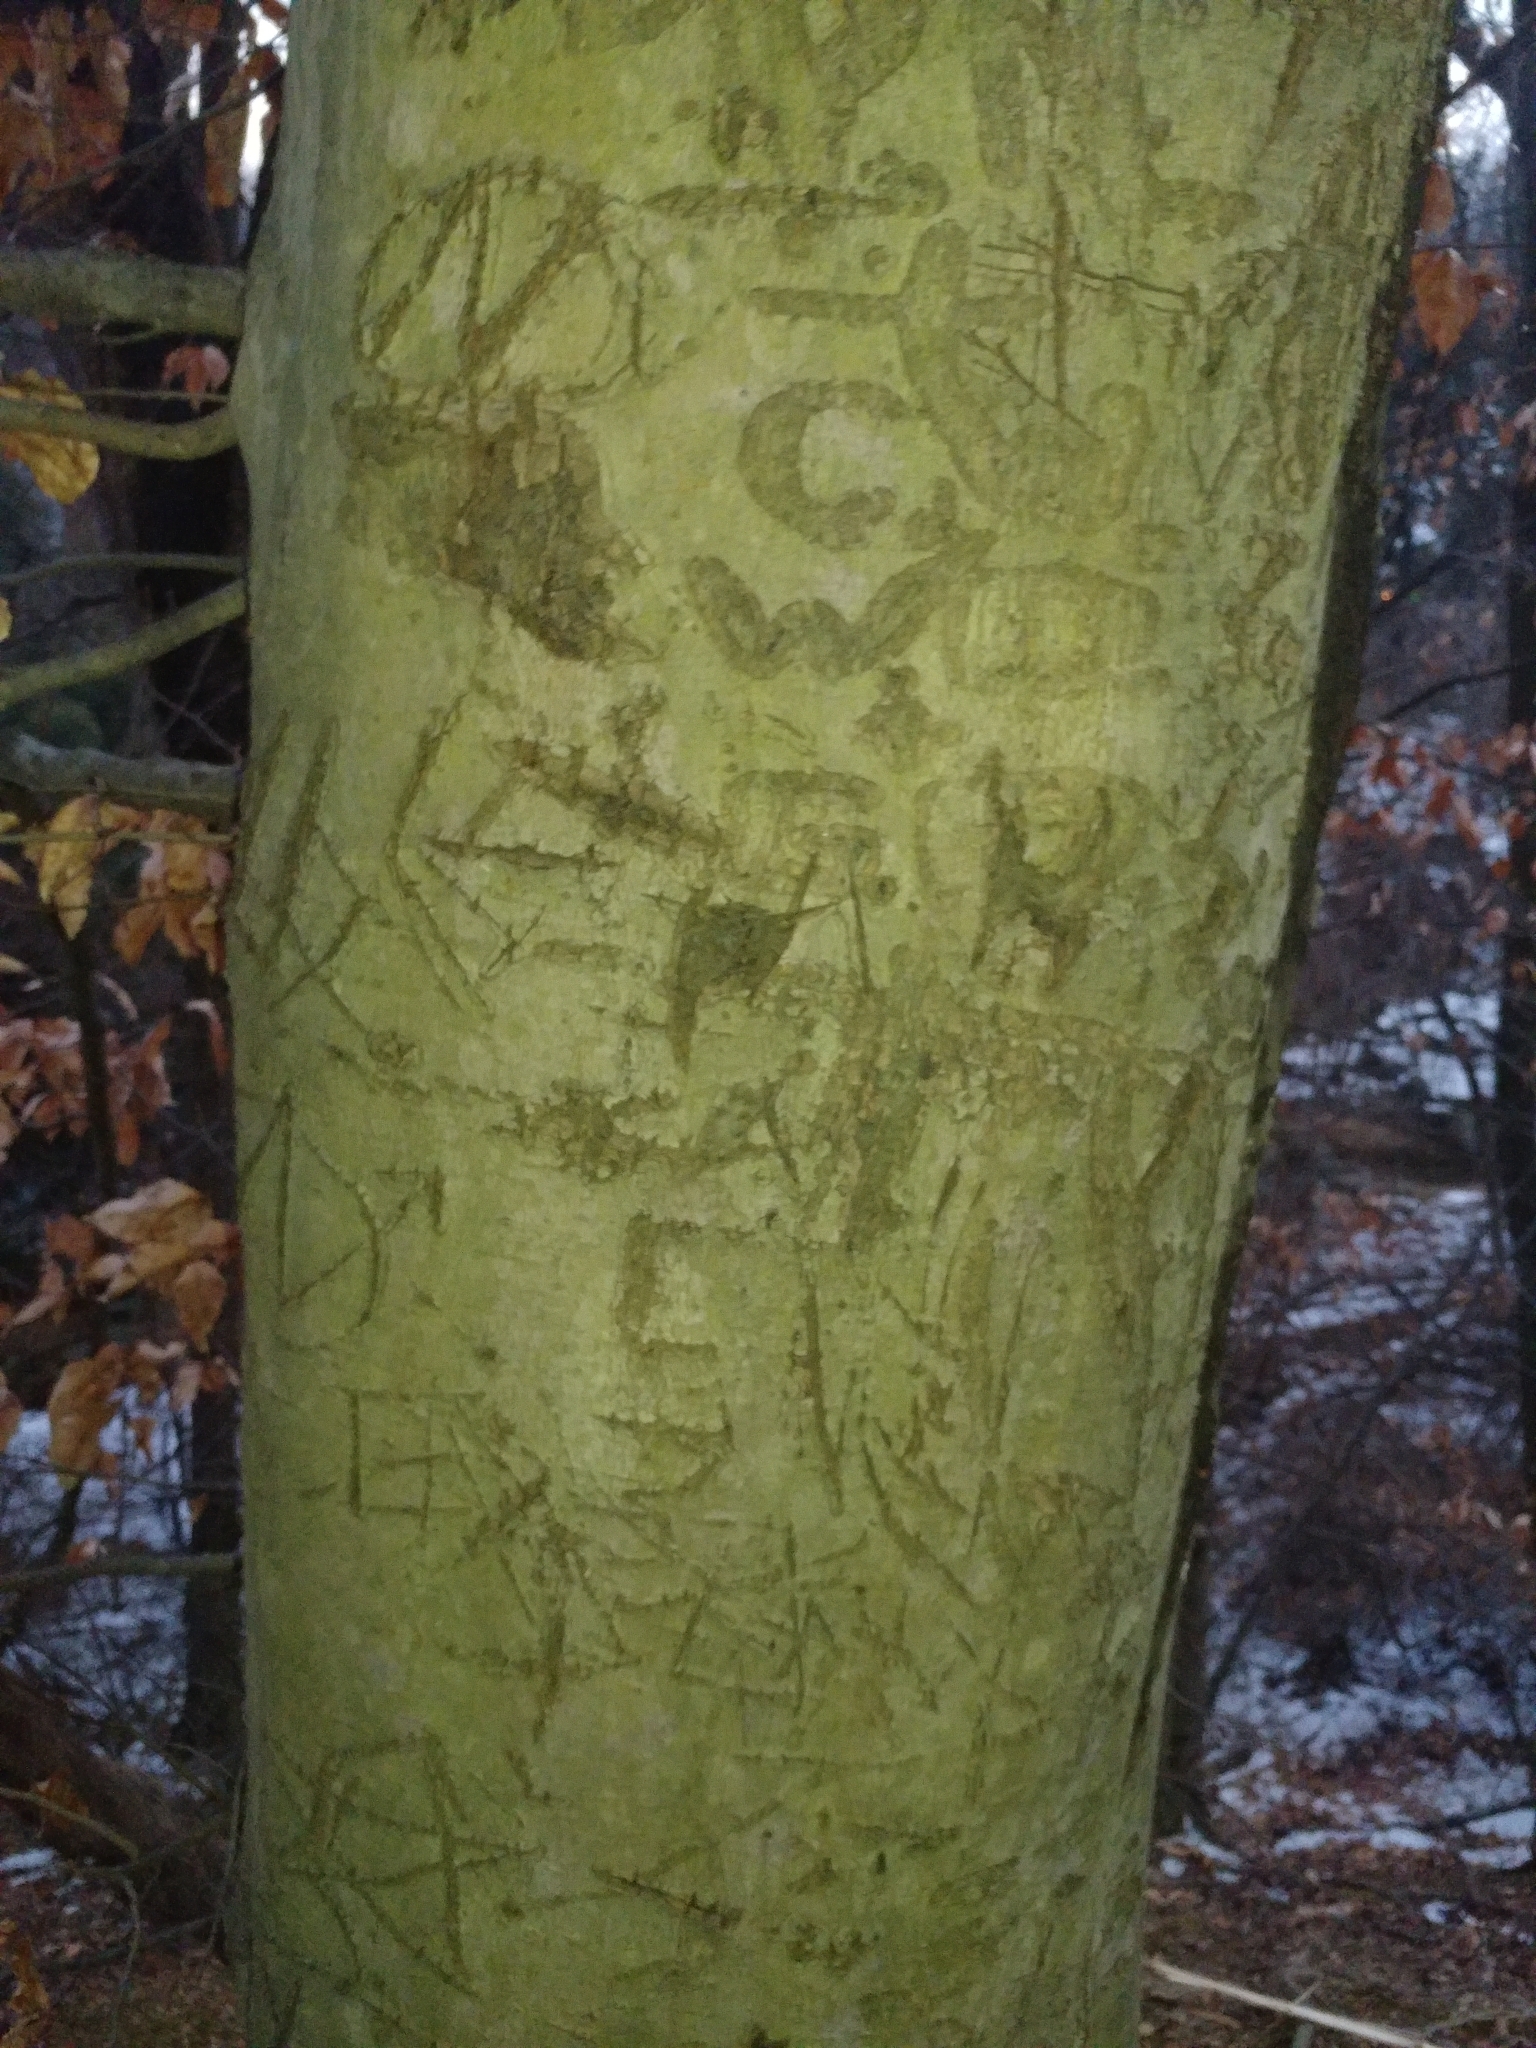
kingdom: Plantae
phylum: Tracheophyta
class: Magnoliopsida
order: Fagales
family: Fagaceae
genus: Fagus
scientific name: Fagus grandifolia
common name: American beech
